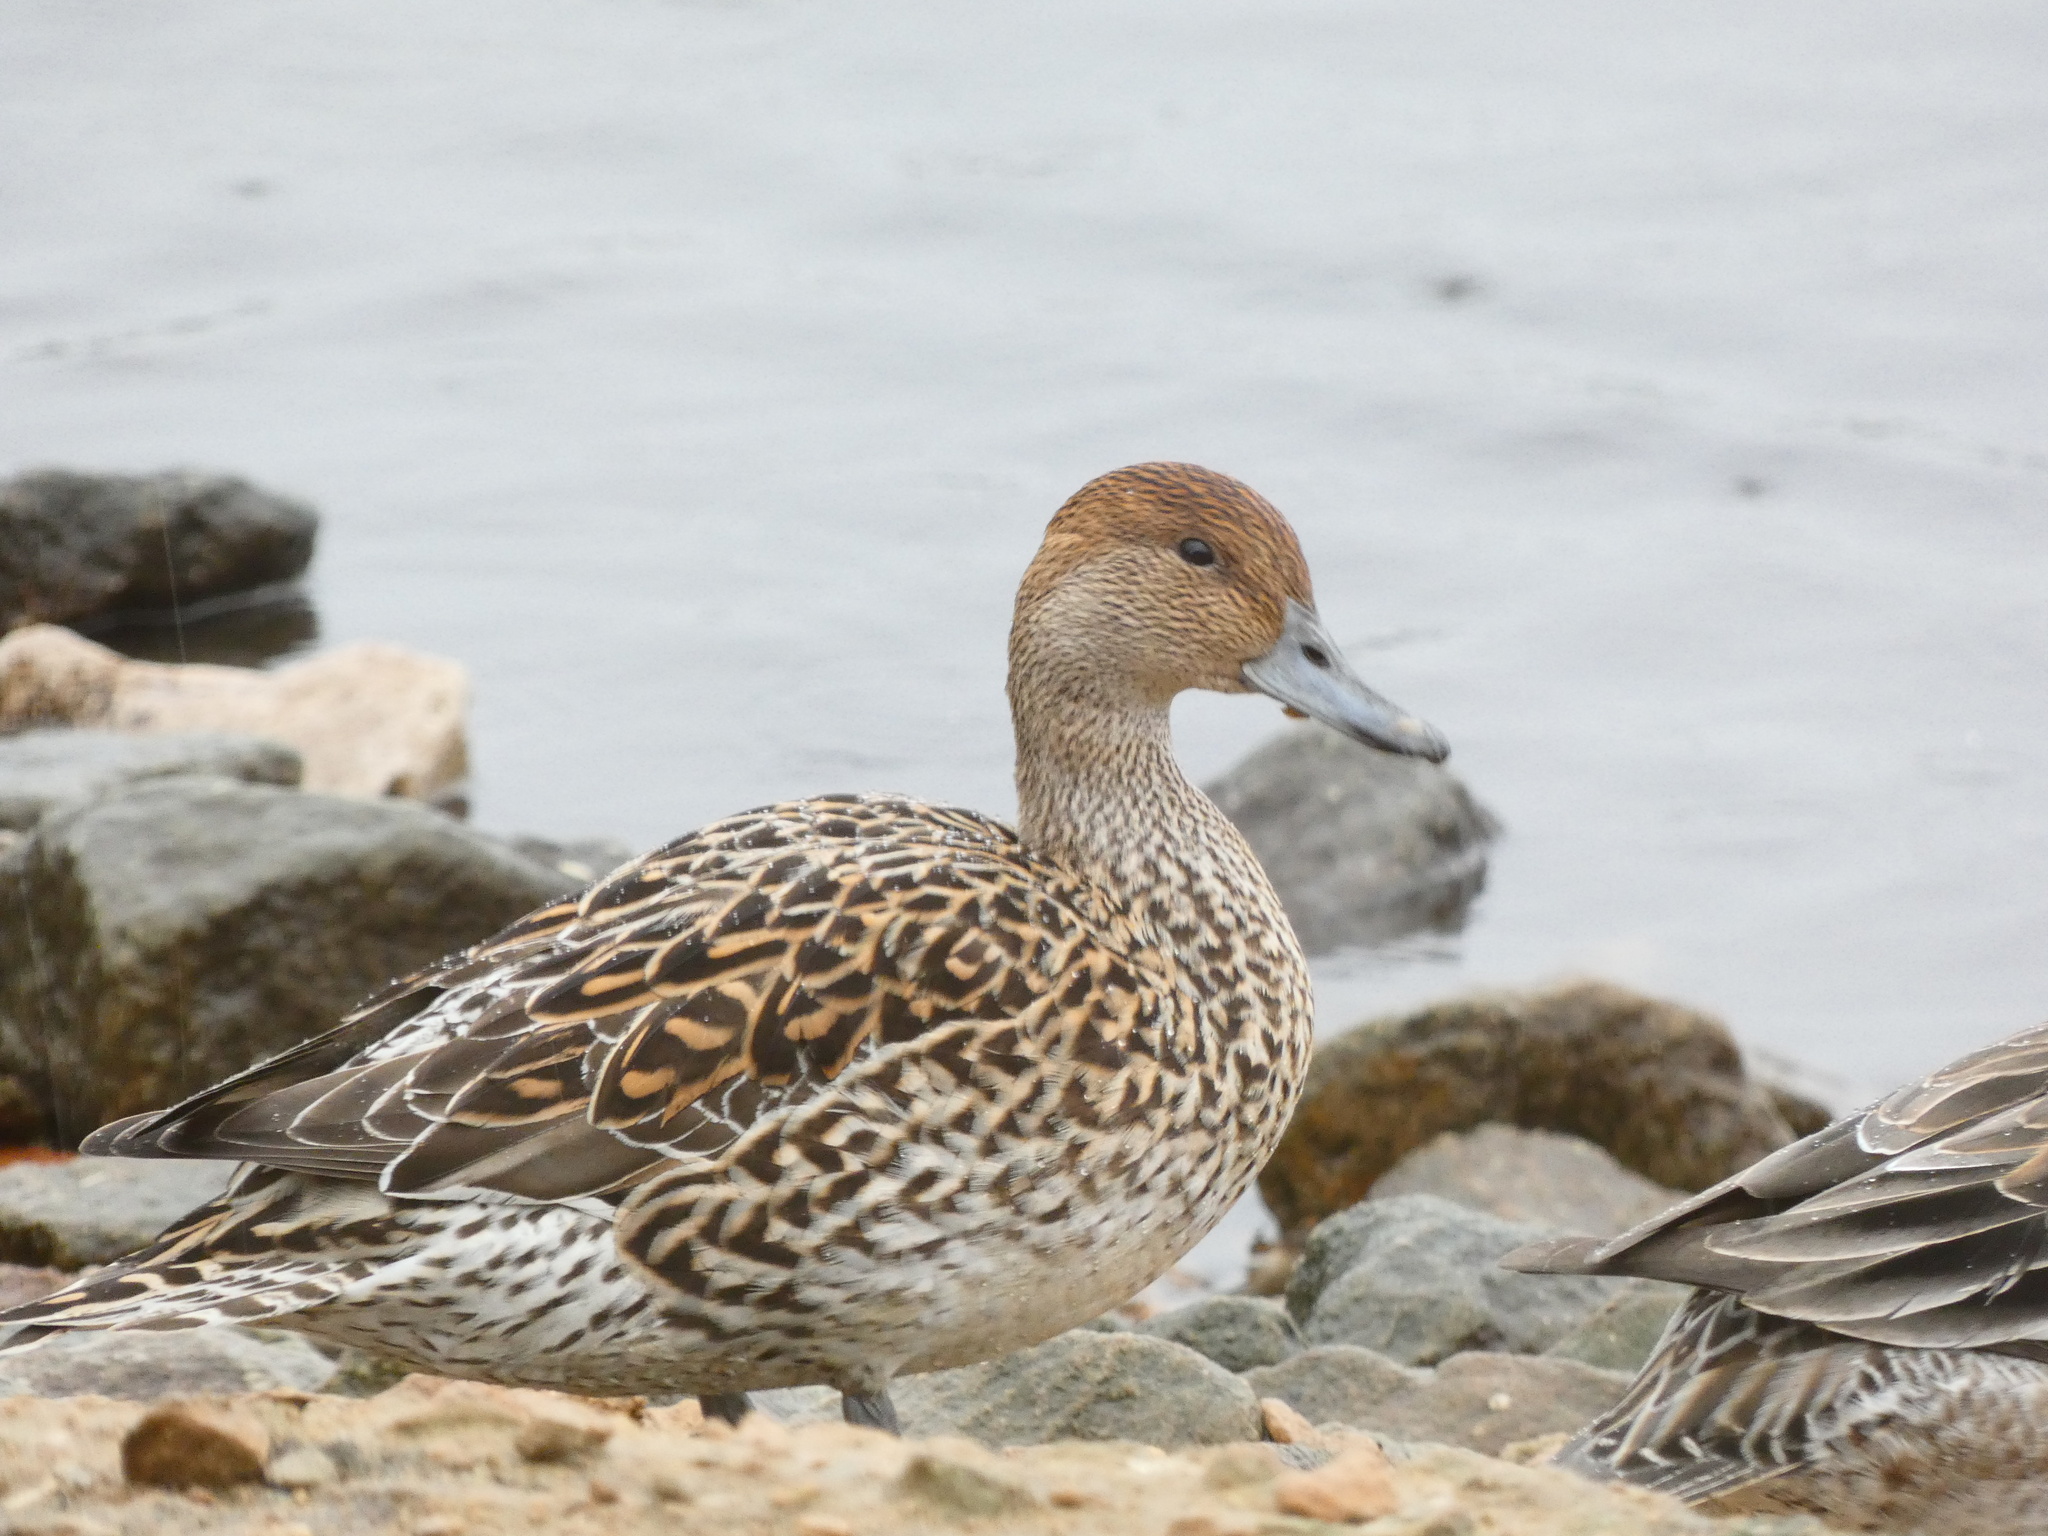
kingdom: Animalia
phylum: Chordata
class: Aves
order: Anseriformes
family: Anatidae
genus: Anas
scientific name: Anas acuta
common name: Northern pintail
